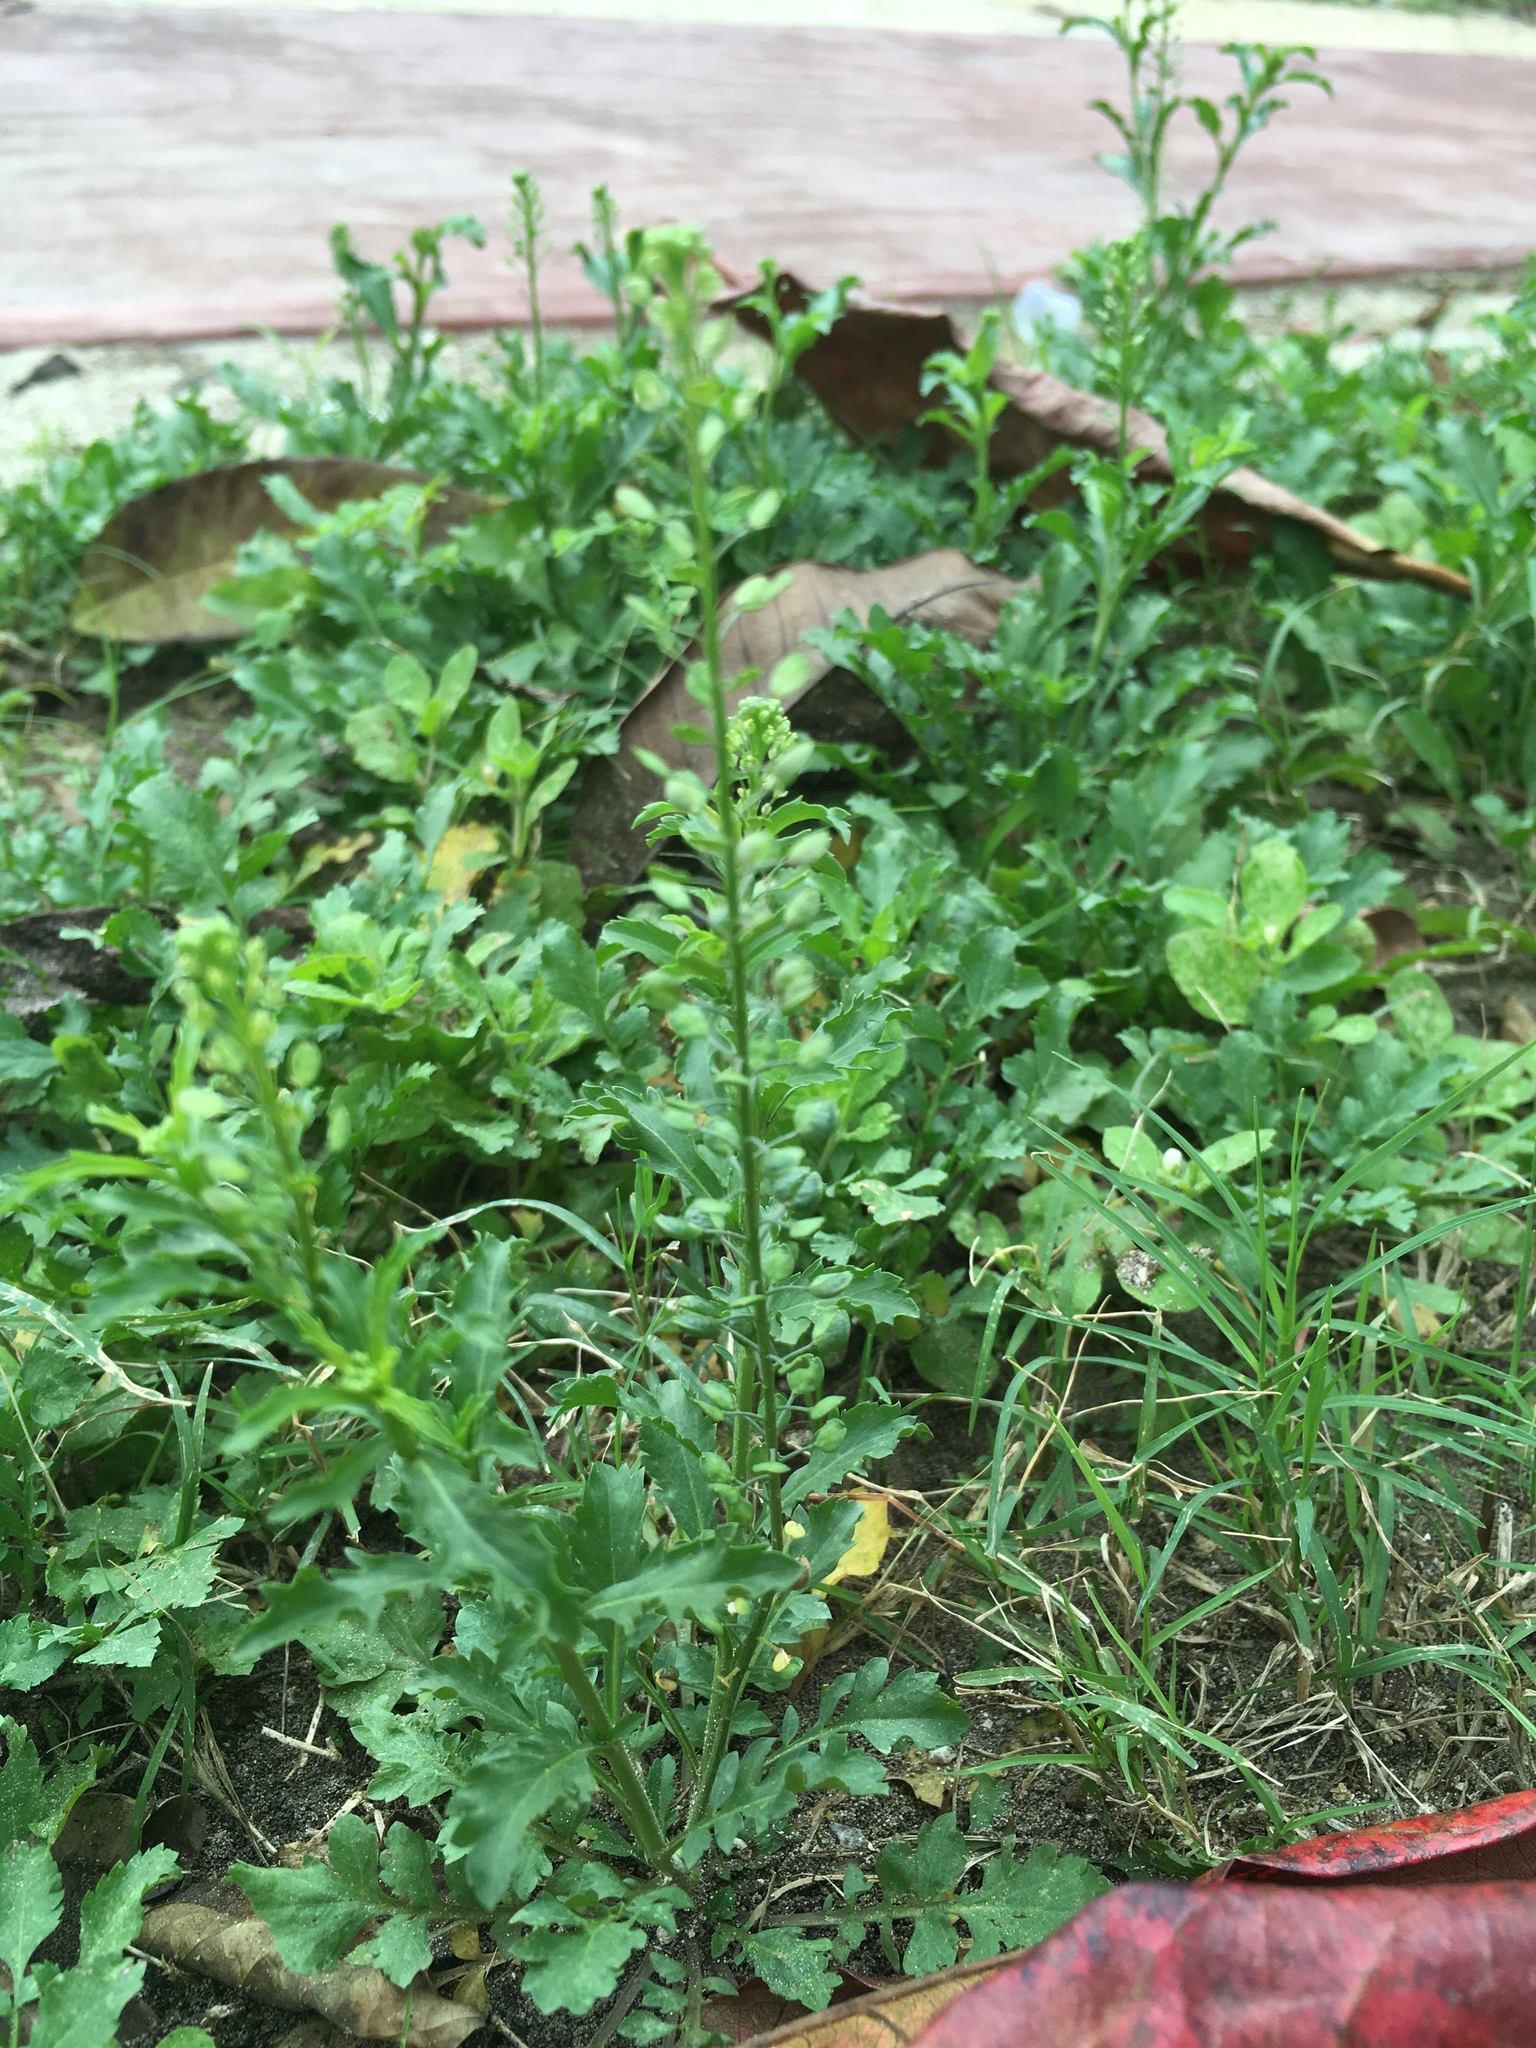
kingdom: Plantae
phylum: Tracheophyta
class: Magnoliopsida
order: Brassicales
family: Brassicaceae
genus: Lepidium
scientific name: Lepidium virginicum
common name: Least pepperwort
